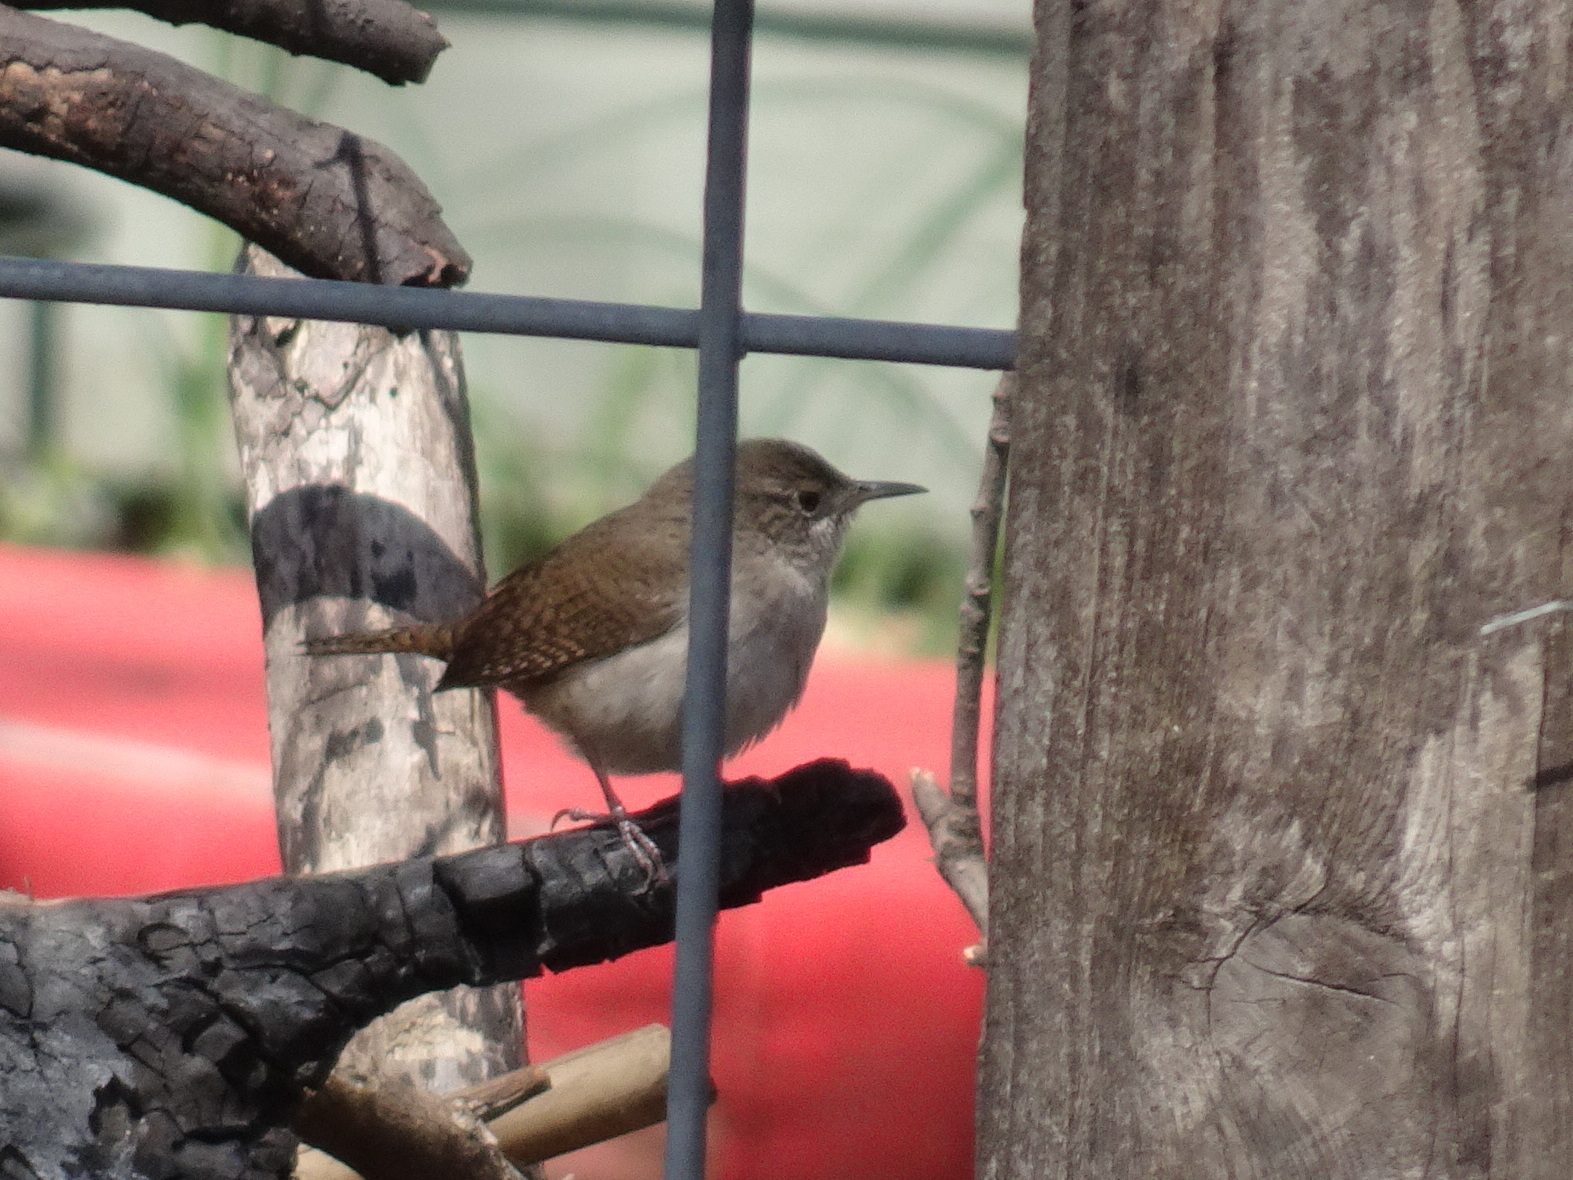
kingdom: Animalia
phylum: Chordata
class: Aves
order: Passeriformes
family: Troglodytidae
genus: Troglodytes
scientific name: Troglodytes aedon
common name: House wren
